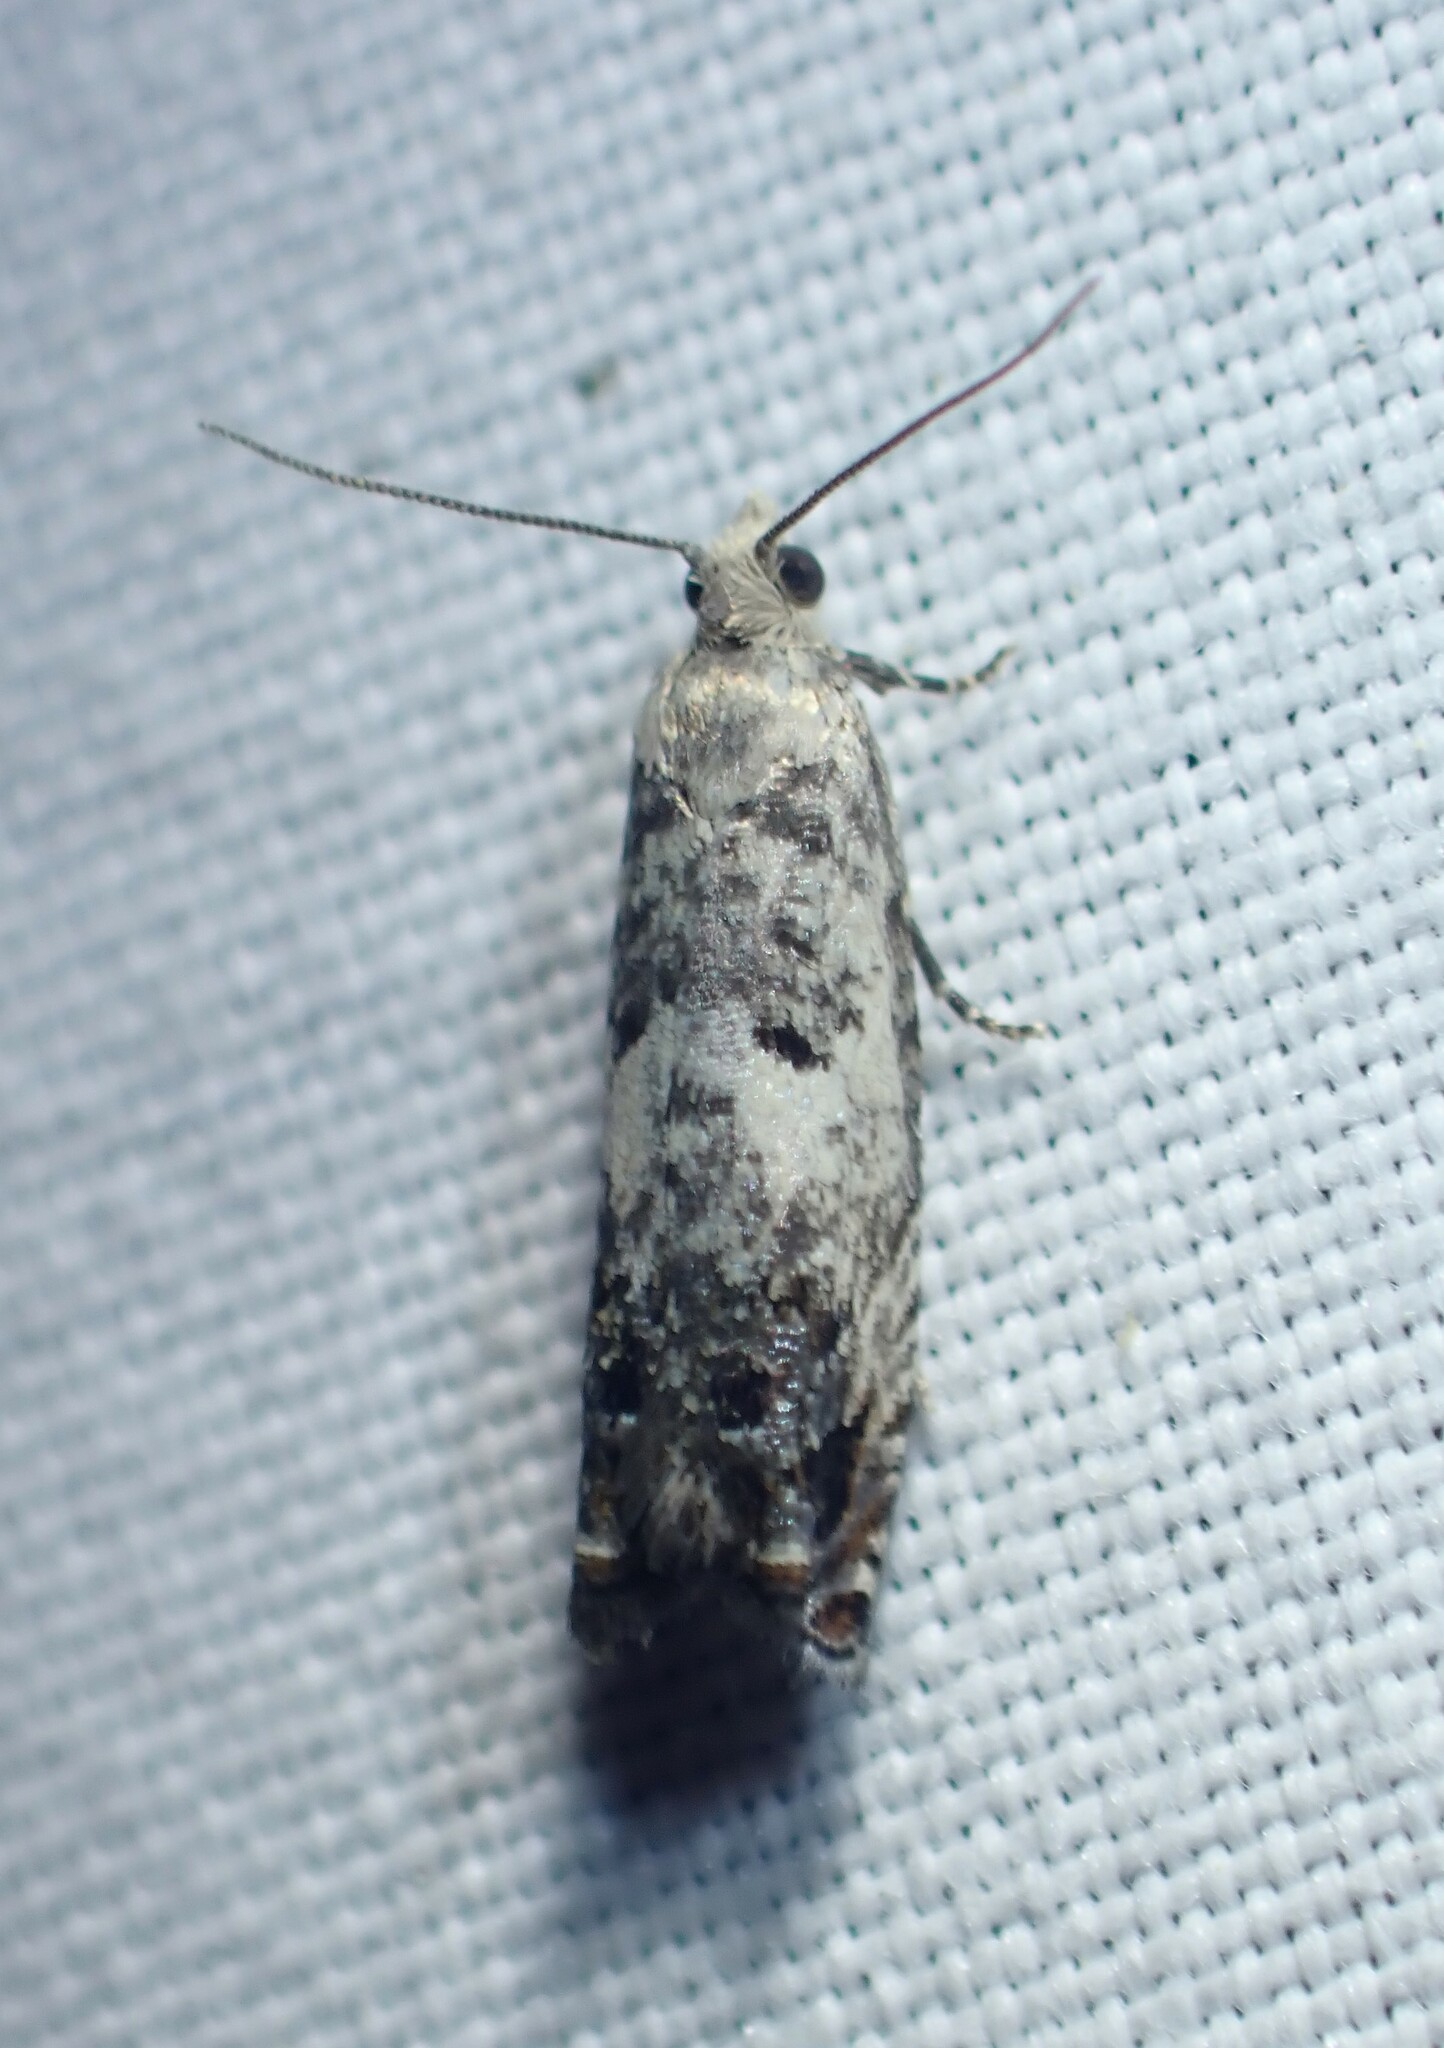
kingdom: Animalia
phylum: Arthropoda
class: Insecta
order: Lepidoptera
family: Tortricidae
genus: Epinotia
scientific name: Epinotia rectiplicana
